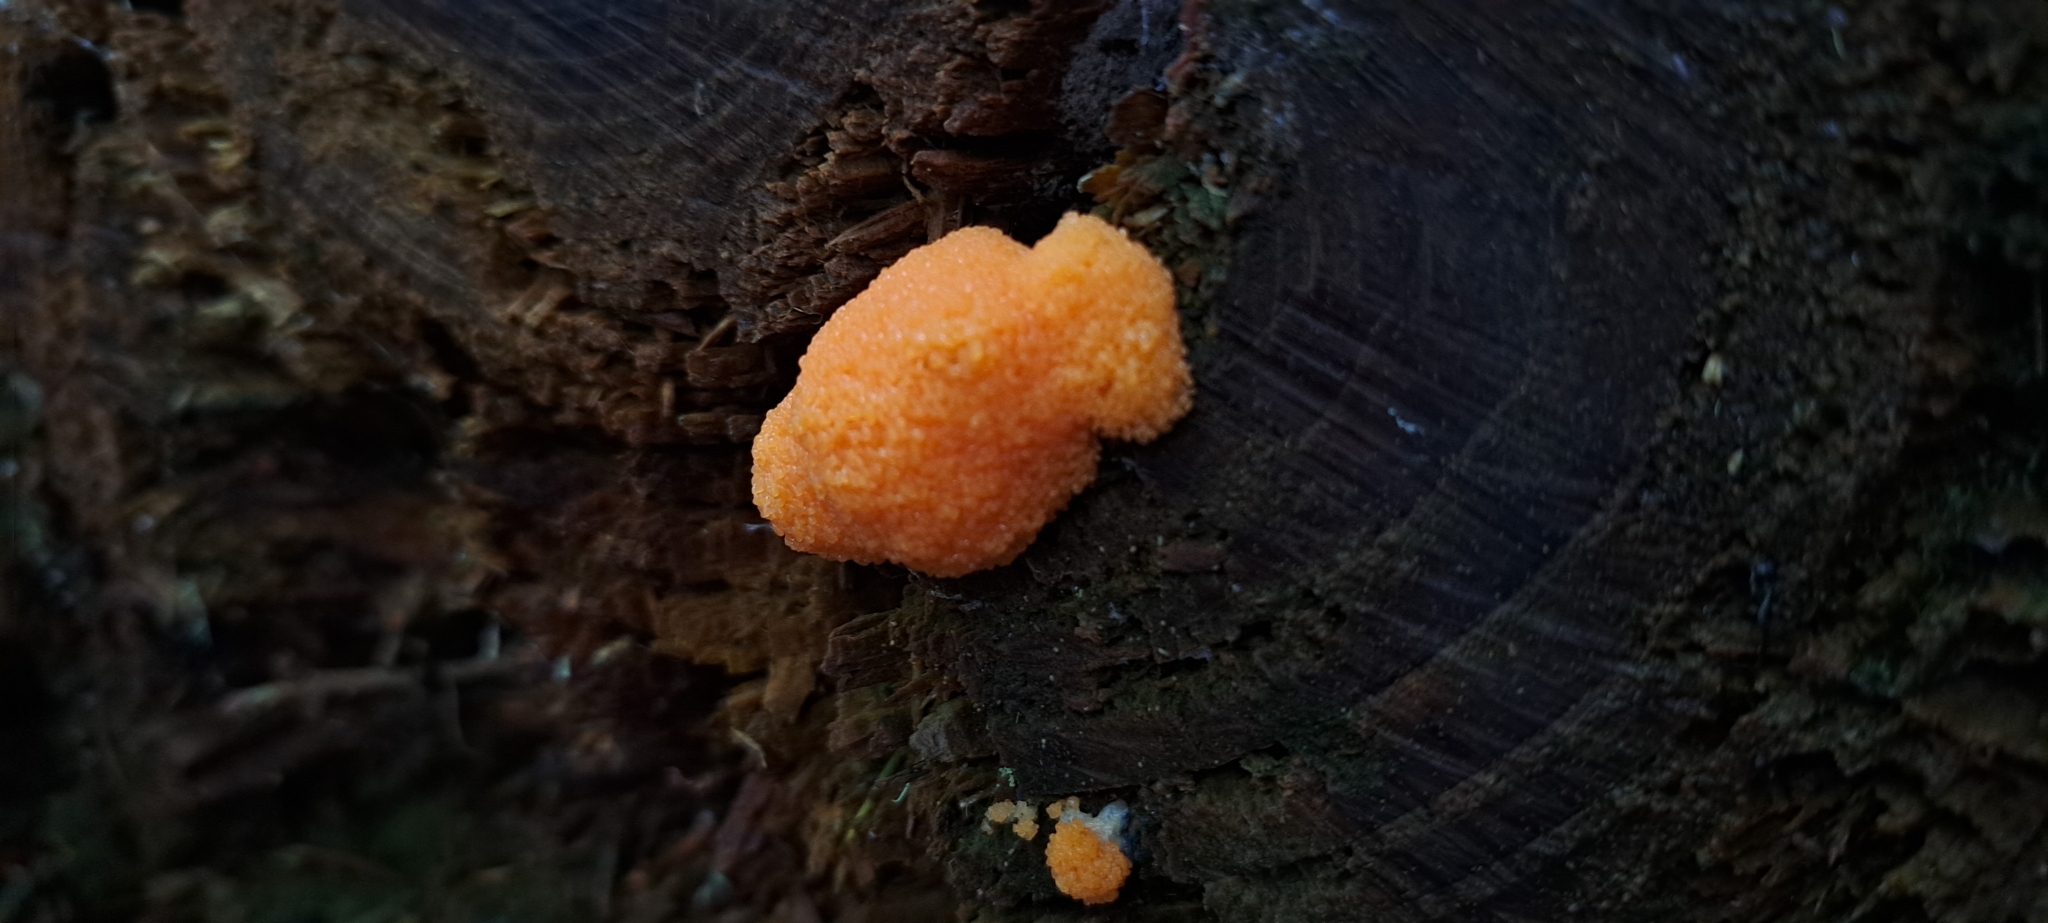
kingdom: Protozoa
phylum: Mycetozoa
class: Myxomycetes
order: Cribrariales
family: Tubiferaceae
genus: Tubifera
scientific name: Tubifera ferruginosa
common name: Red raspberry slime mold
